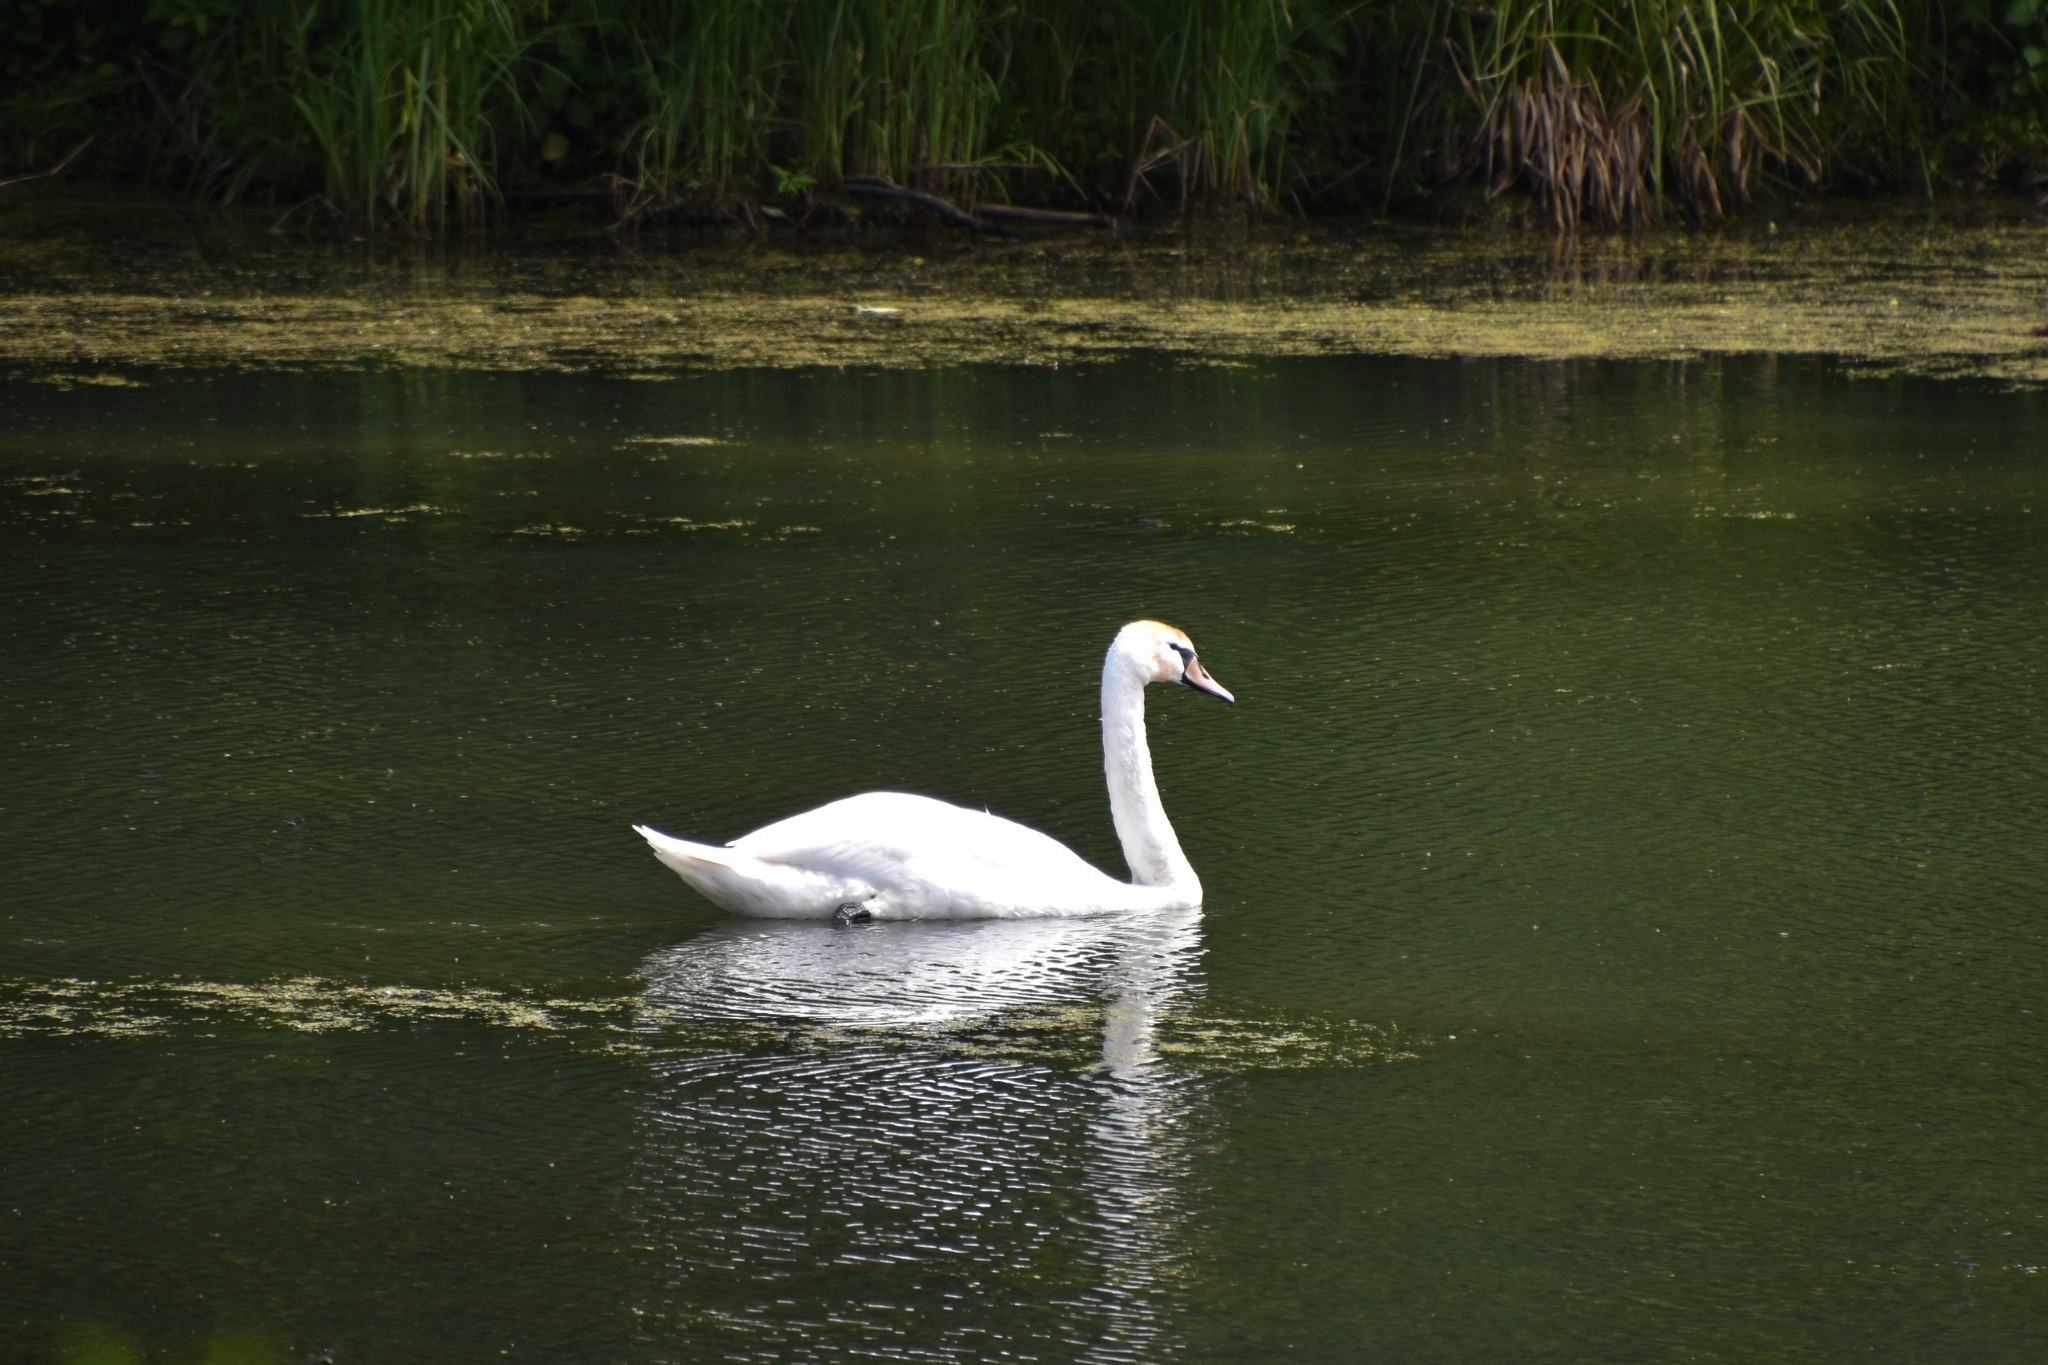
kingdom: Animalia
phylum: Chordata
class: Aves
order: Anseriformes
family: Anatidae
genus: Cygnus
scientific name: Cygnus olor
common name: Mute swan
